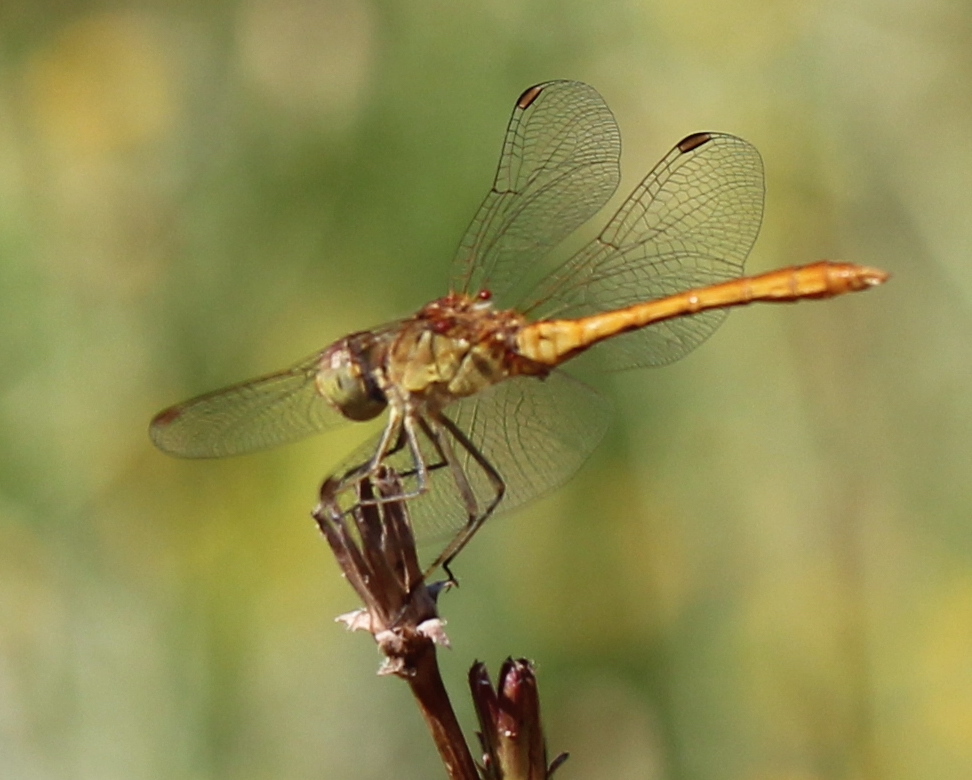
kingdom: Animalia
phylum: Arthropoda
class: Insecta
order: Odonata
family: Libellulidae
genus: Sympetrum
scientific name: Sympetrum meridionale
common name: Southern darter
